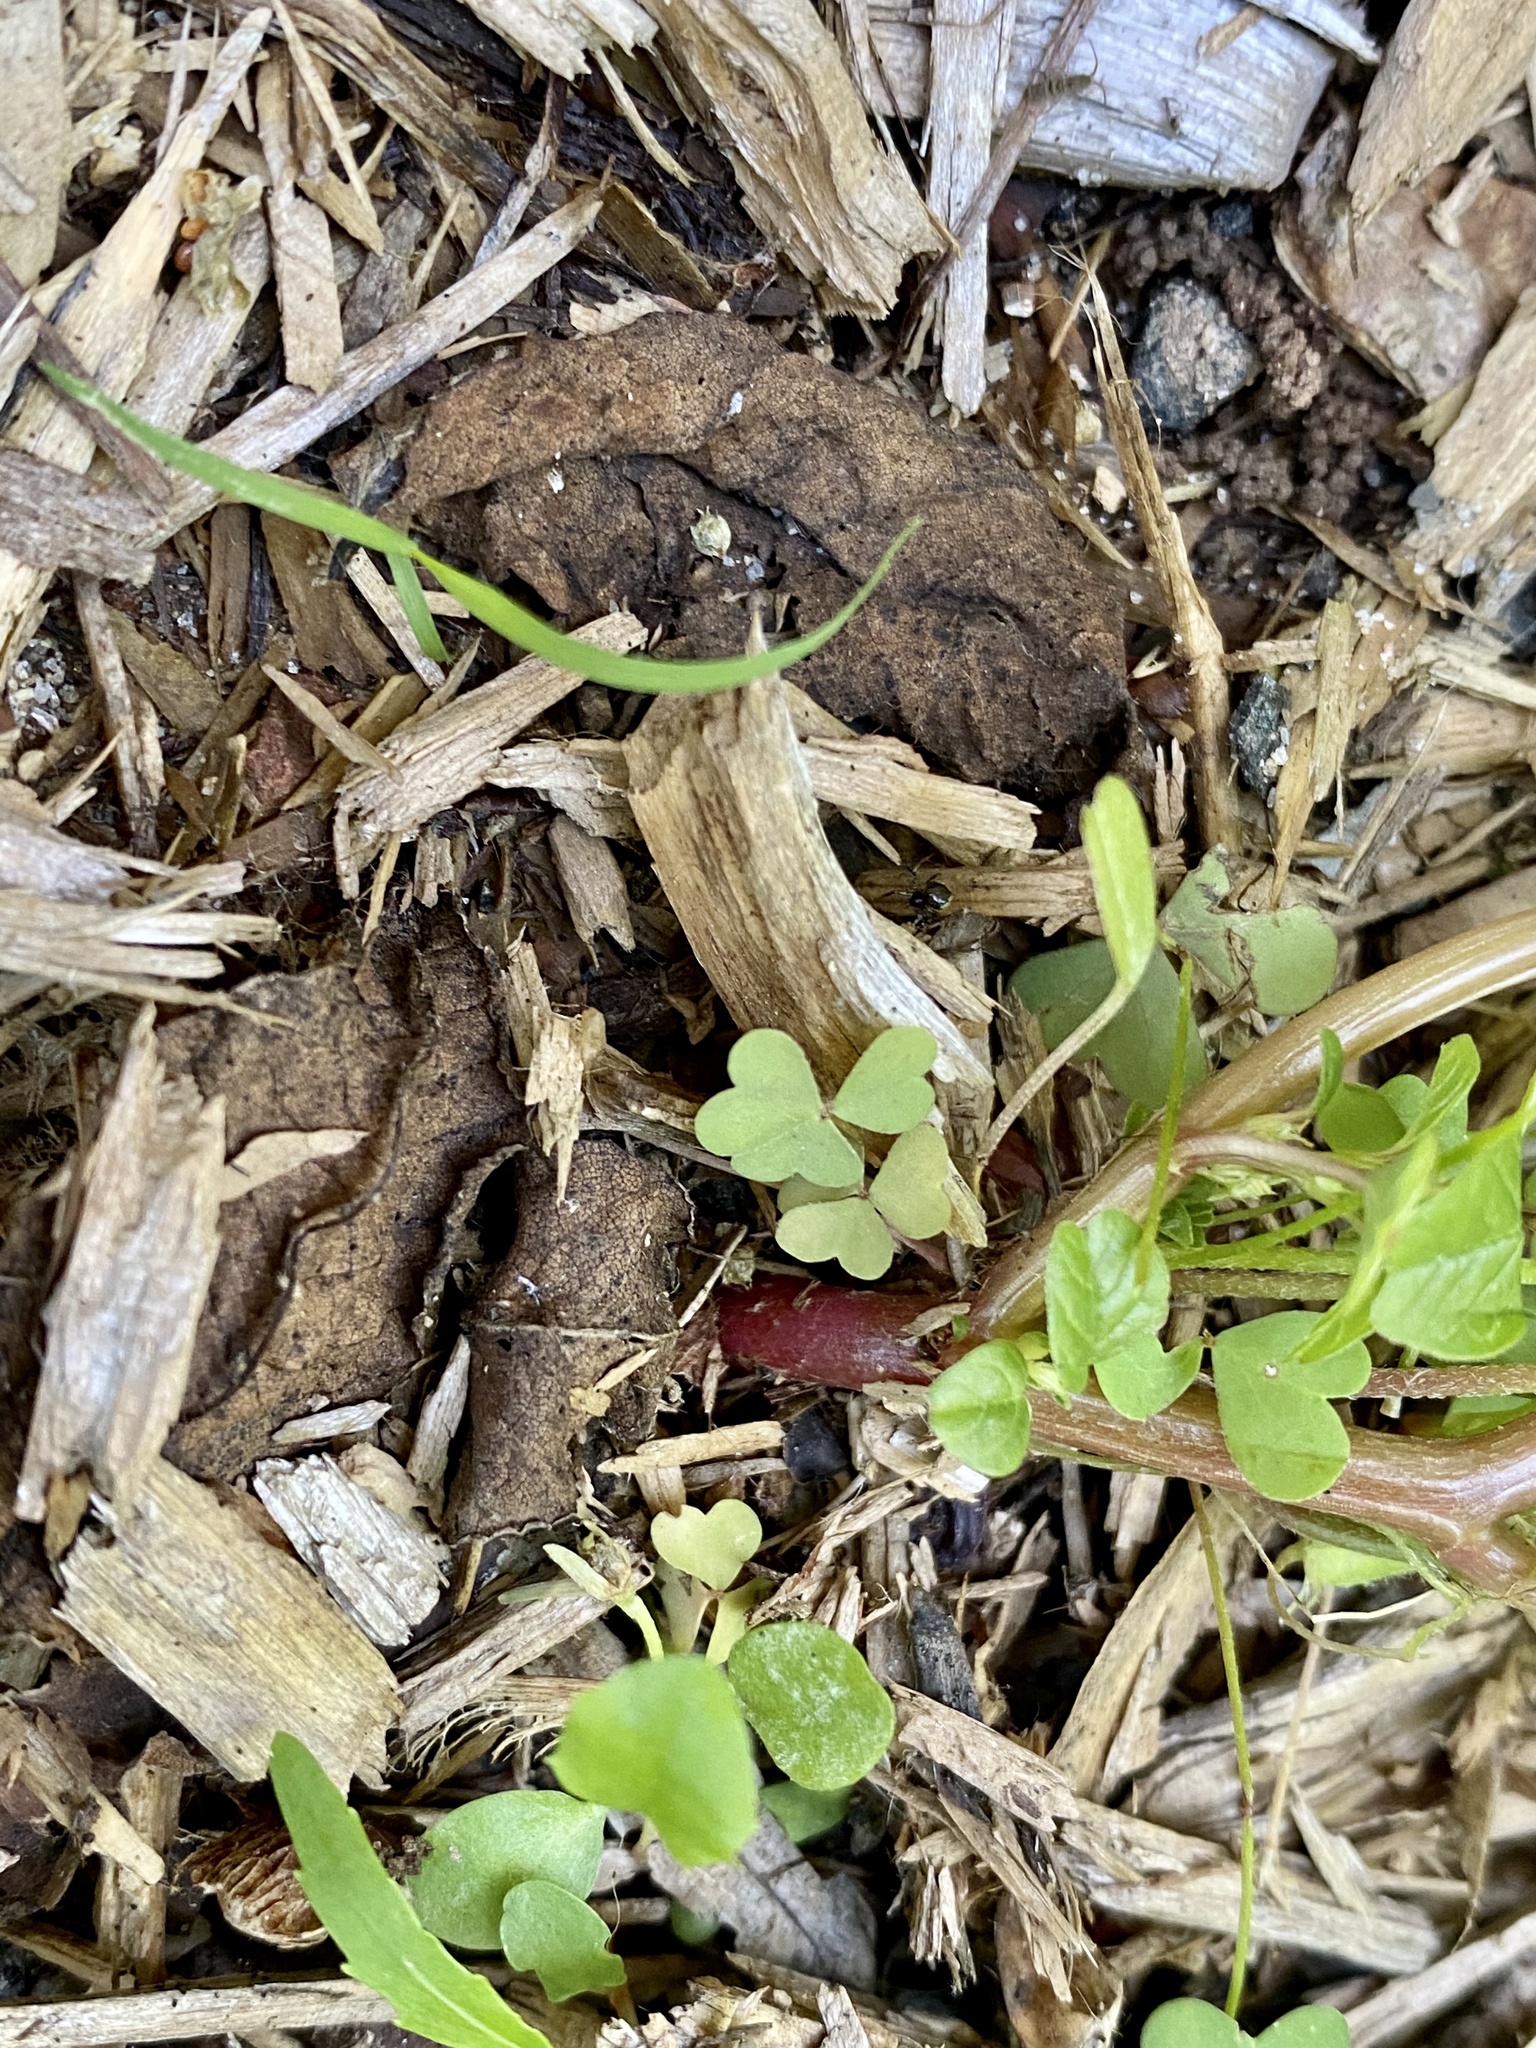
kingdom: Plantae
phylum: Tracheophyta
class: Magnoliopsida
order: Caryophyllales
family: Amaranthaceae
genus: Amaranthus
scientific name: Amaranthus retroflexus
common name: Redroot amaranth
